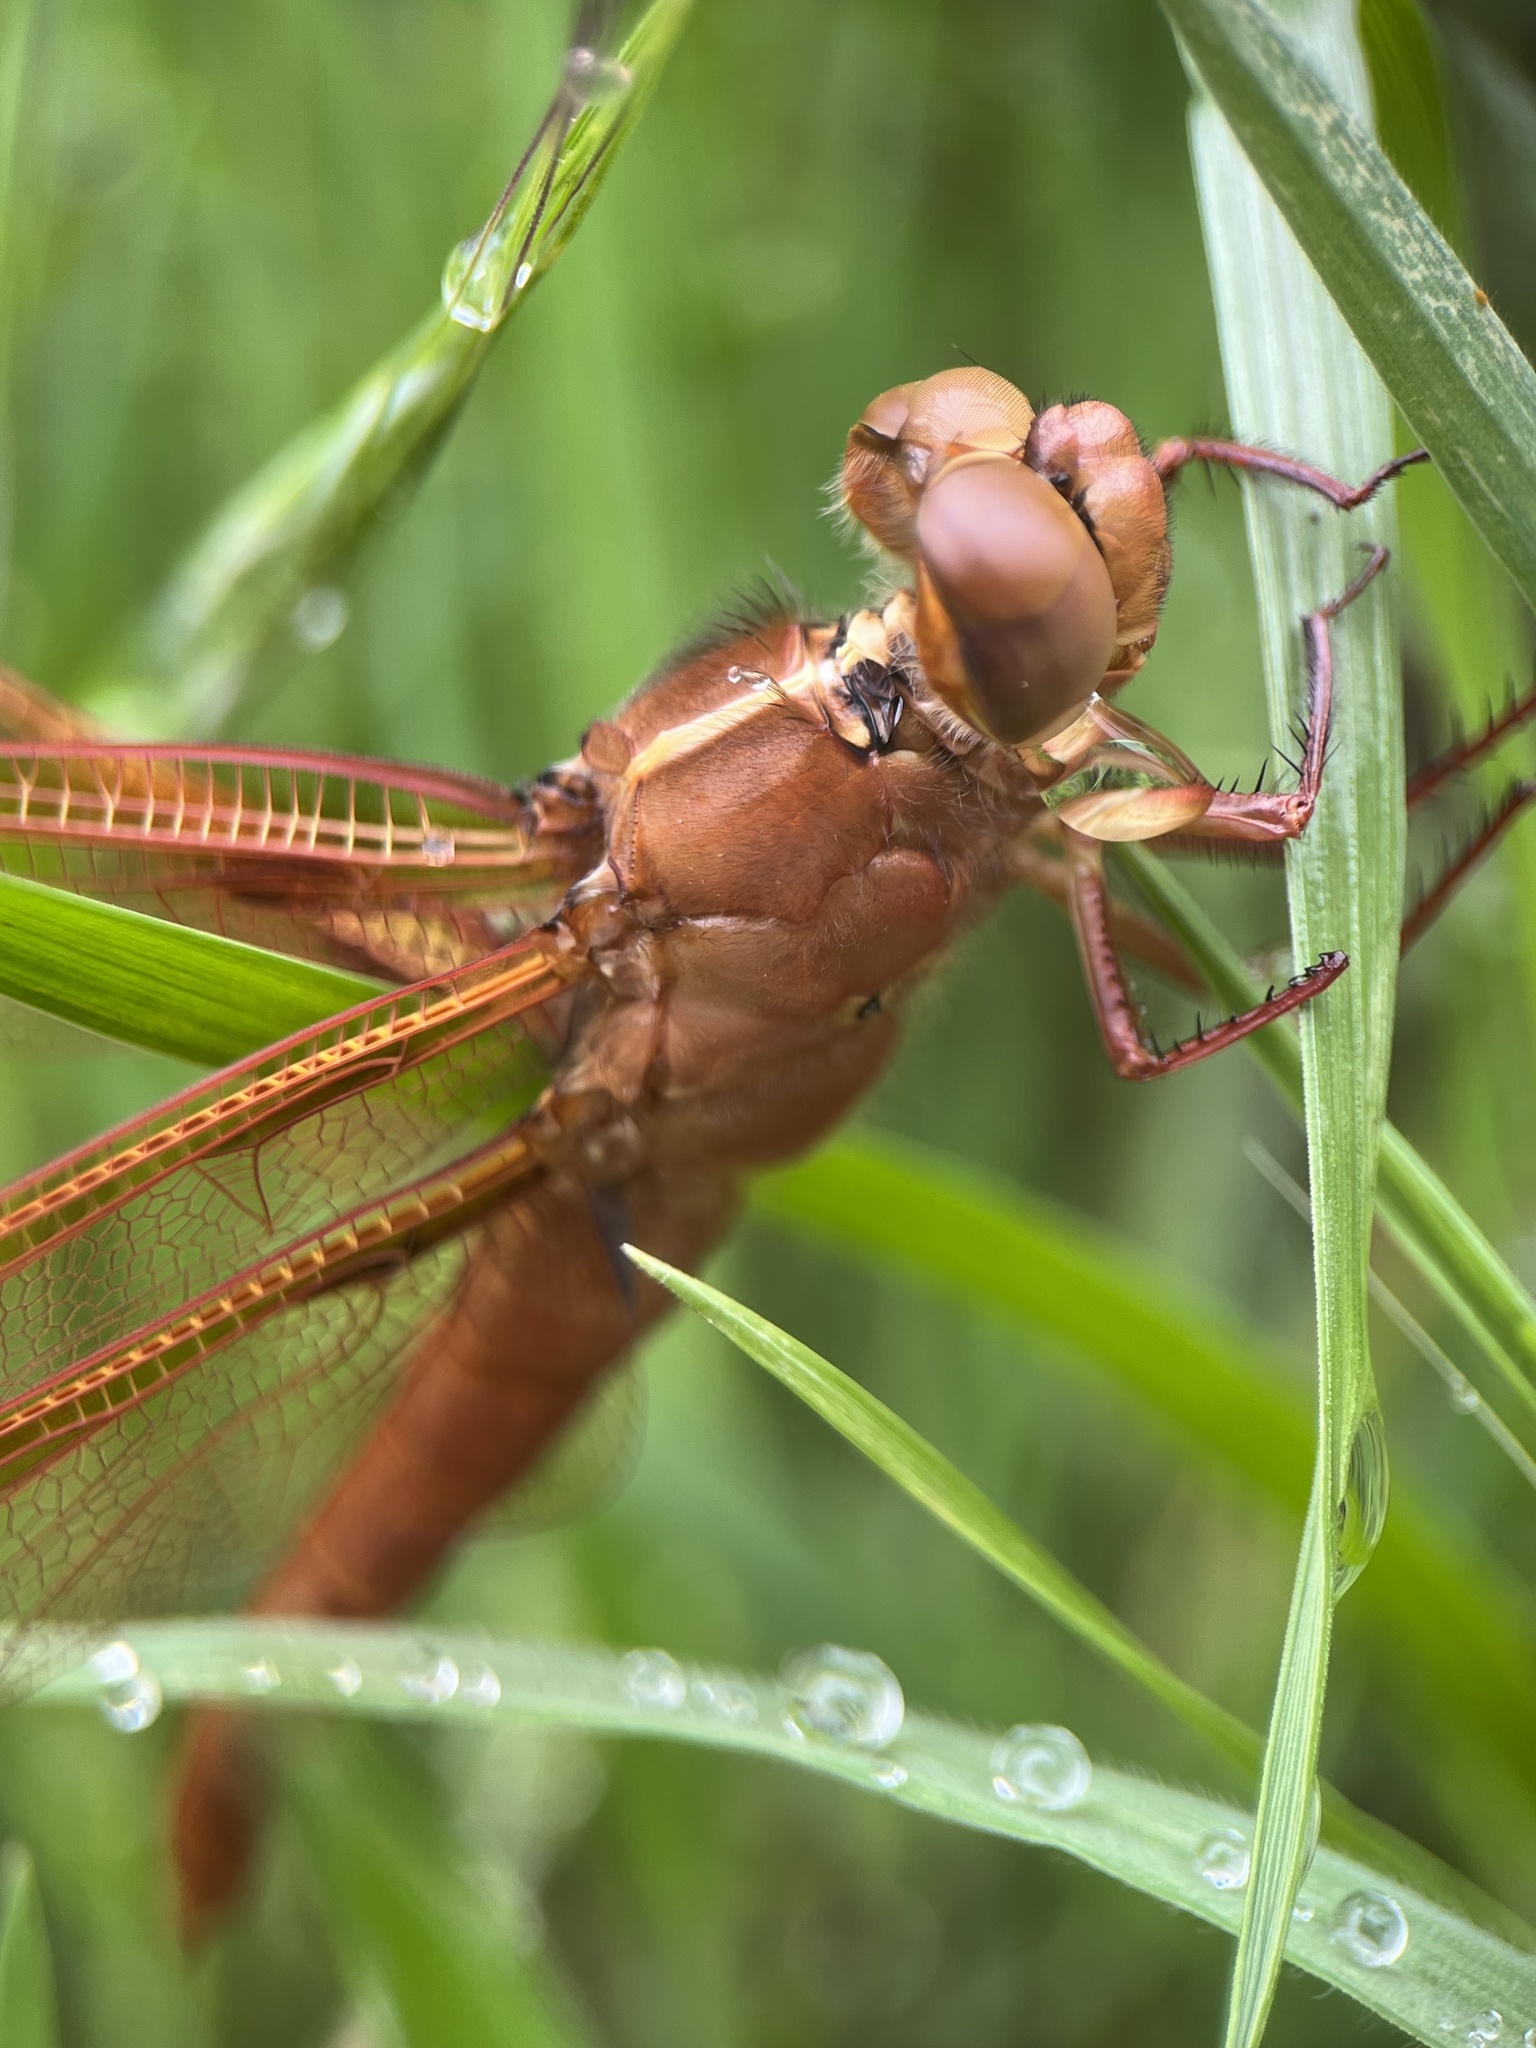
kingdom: Animalia
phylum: Arthropoda
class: Insecta
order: Odonata
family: Libellulidae
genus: Libellula
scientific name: Libellula saturata
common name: Flame skimmer
